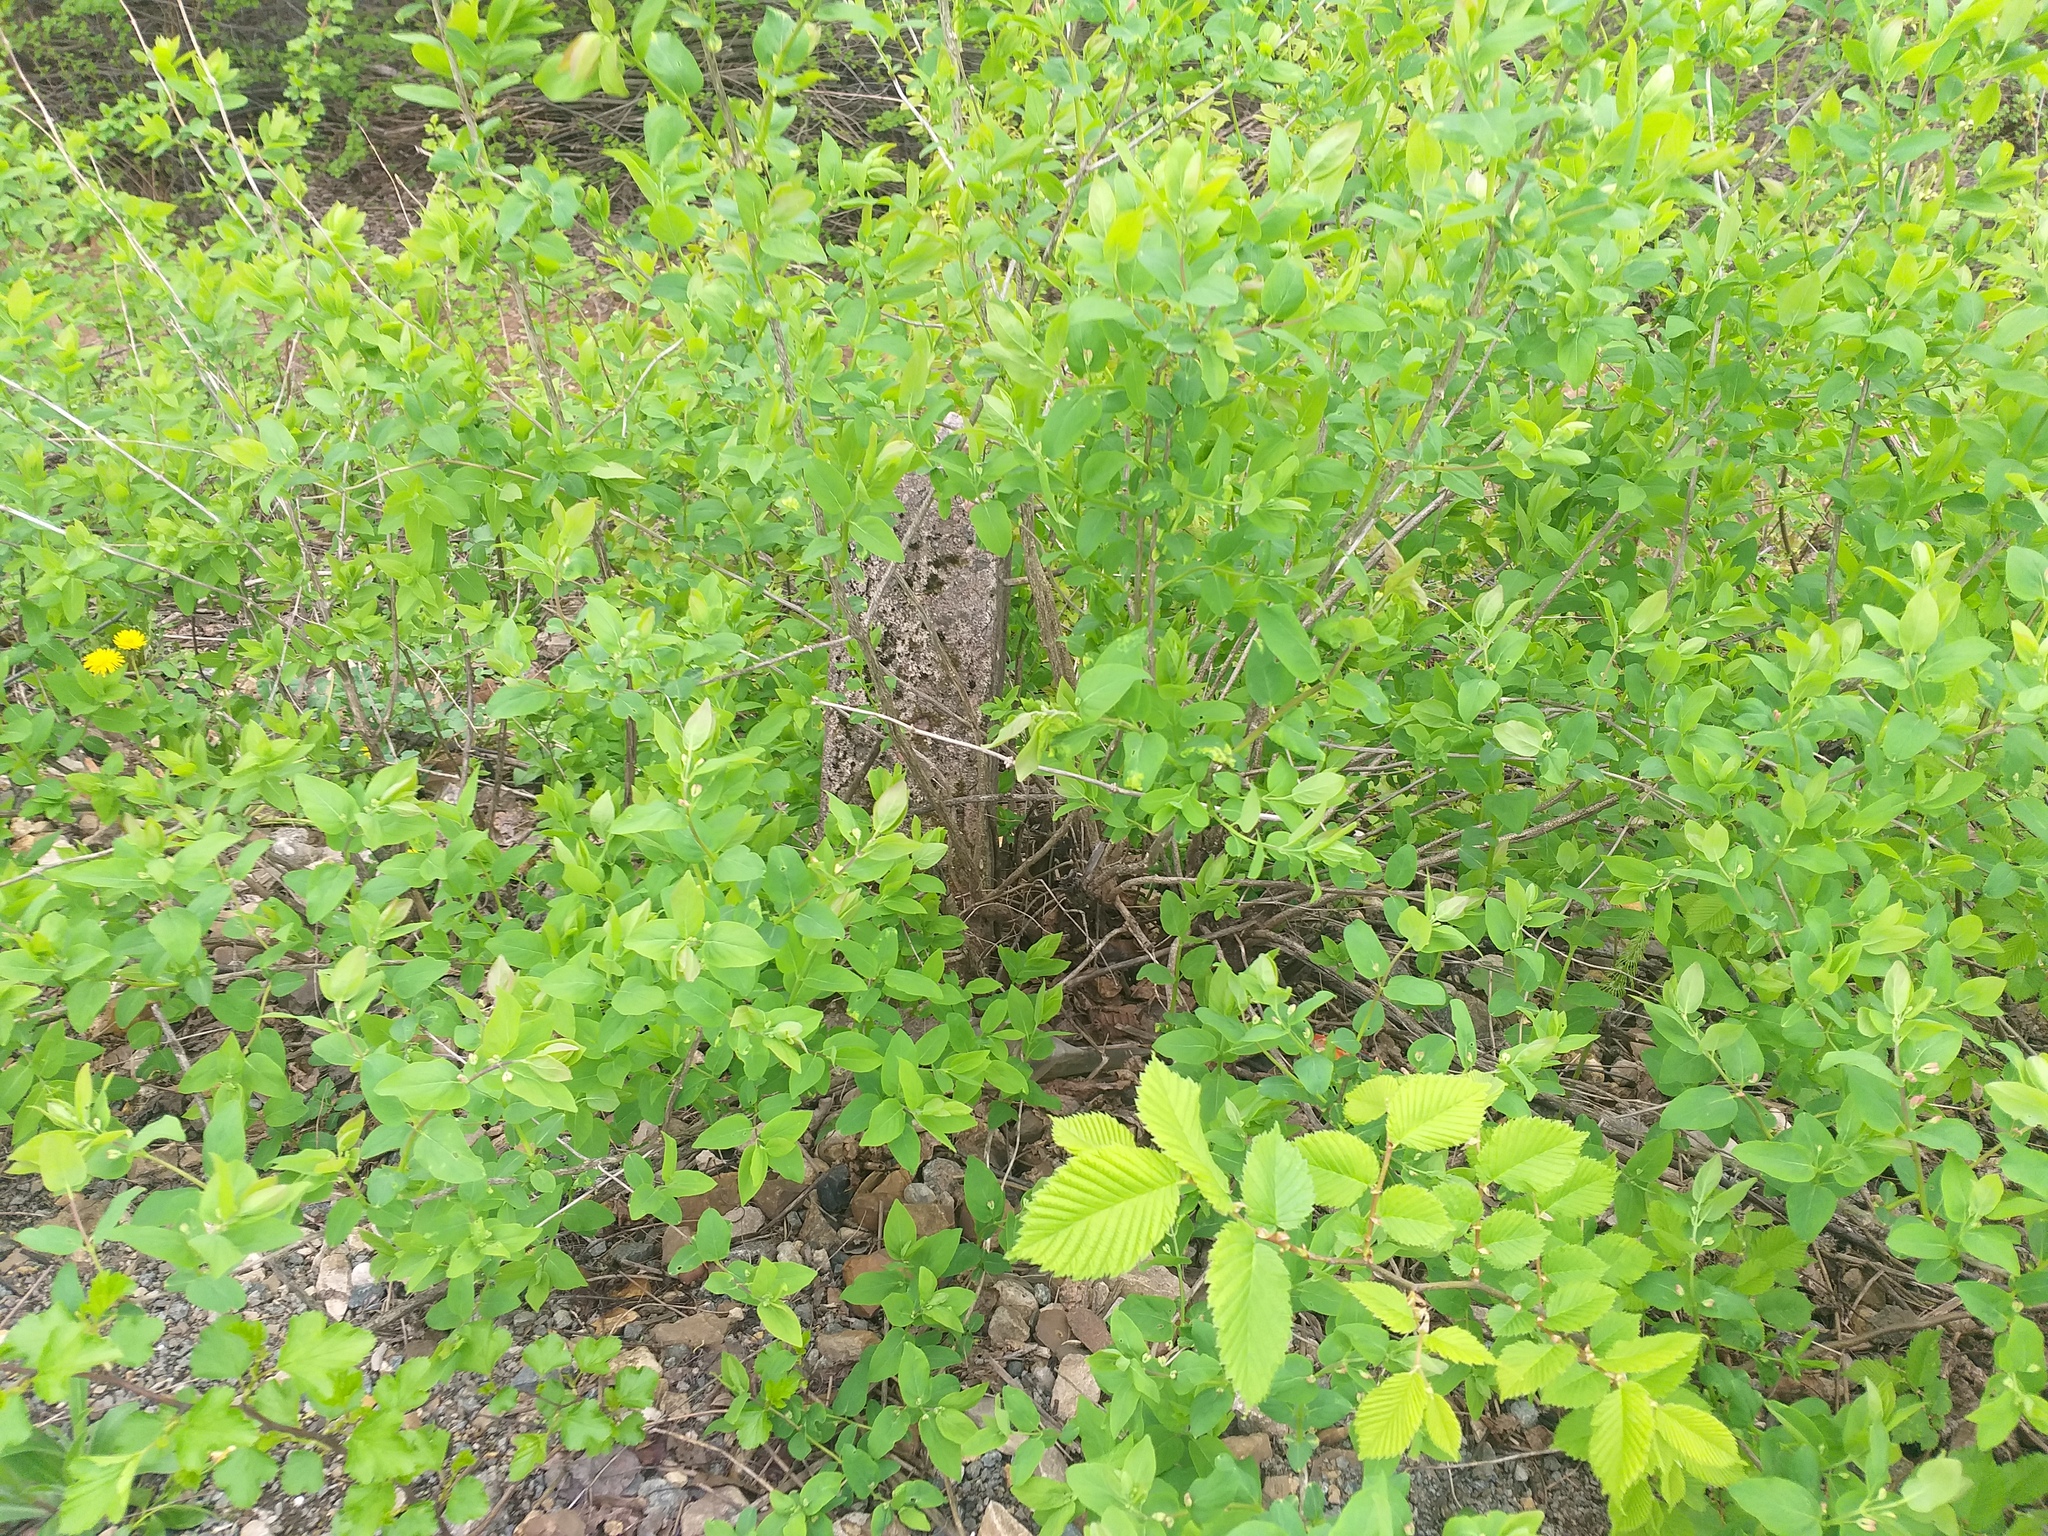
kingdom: Plantae
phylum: Tracheophyta
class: Magnoliopsida
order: Dipsacales
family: Caprifoliaceae
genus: Lonicera
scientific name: Lonicera tatarica
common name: Tatarian honeysuckle
